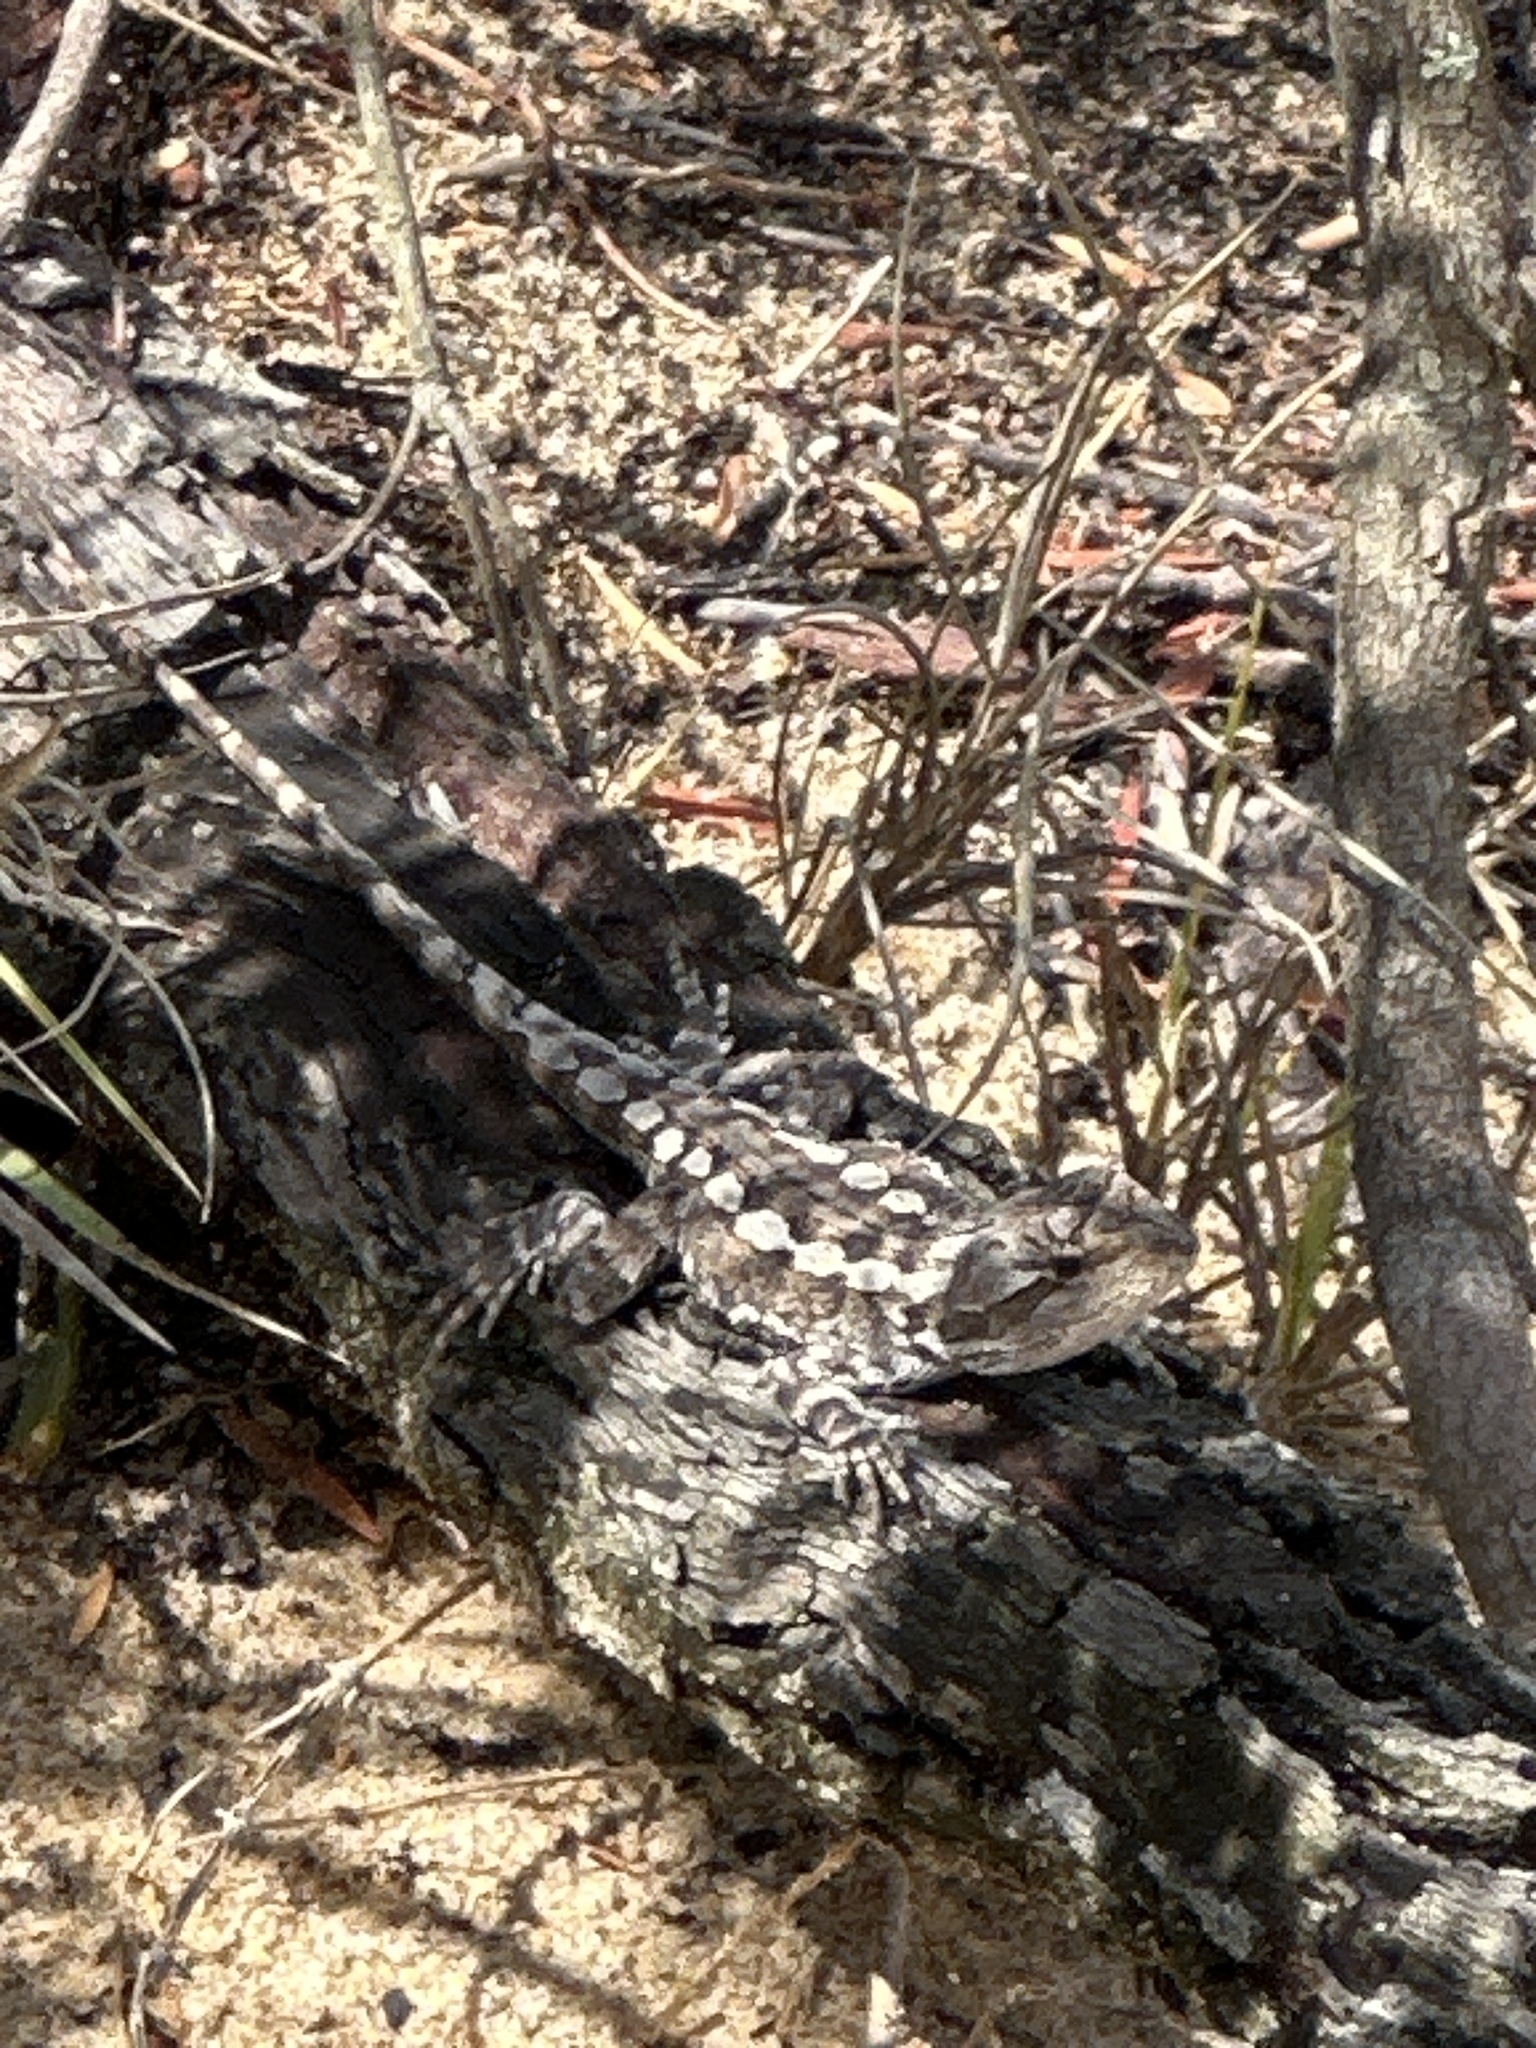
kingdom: Animalia
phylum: Chordata
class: Squamata
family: Agamidae
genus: Amphibolurus
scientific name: Amphibolurus muricatus
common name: Jacky lizard
